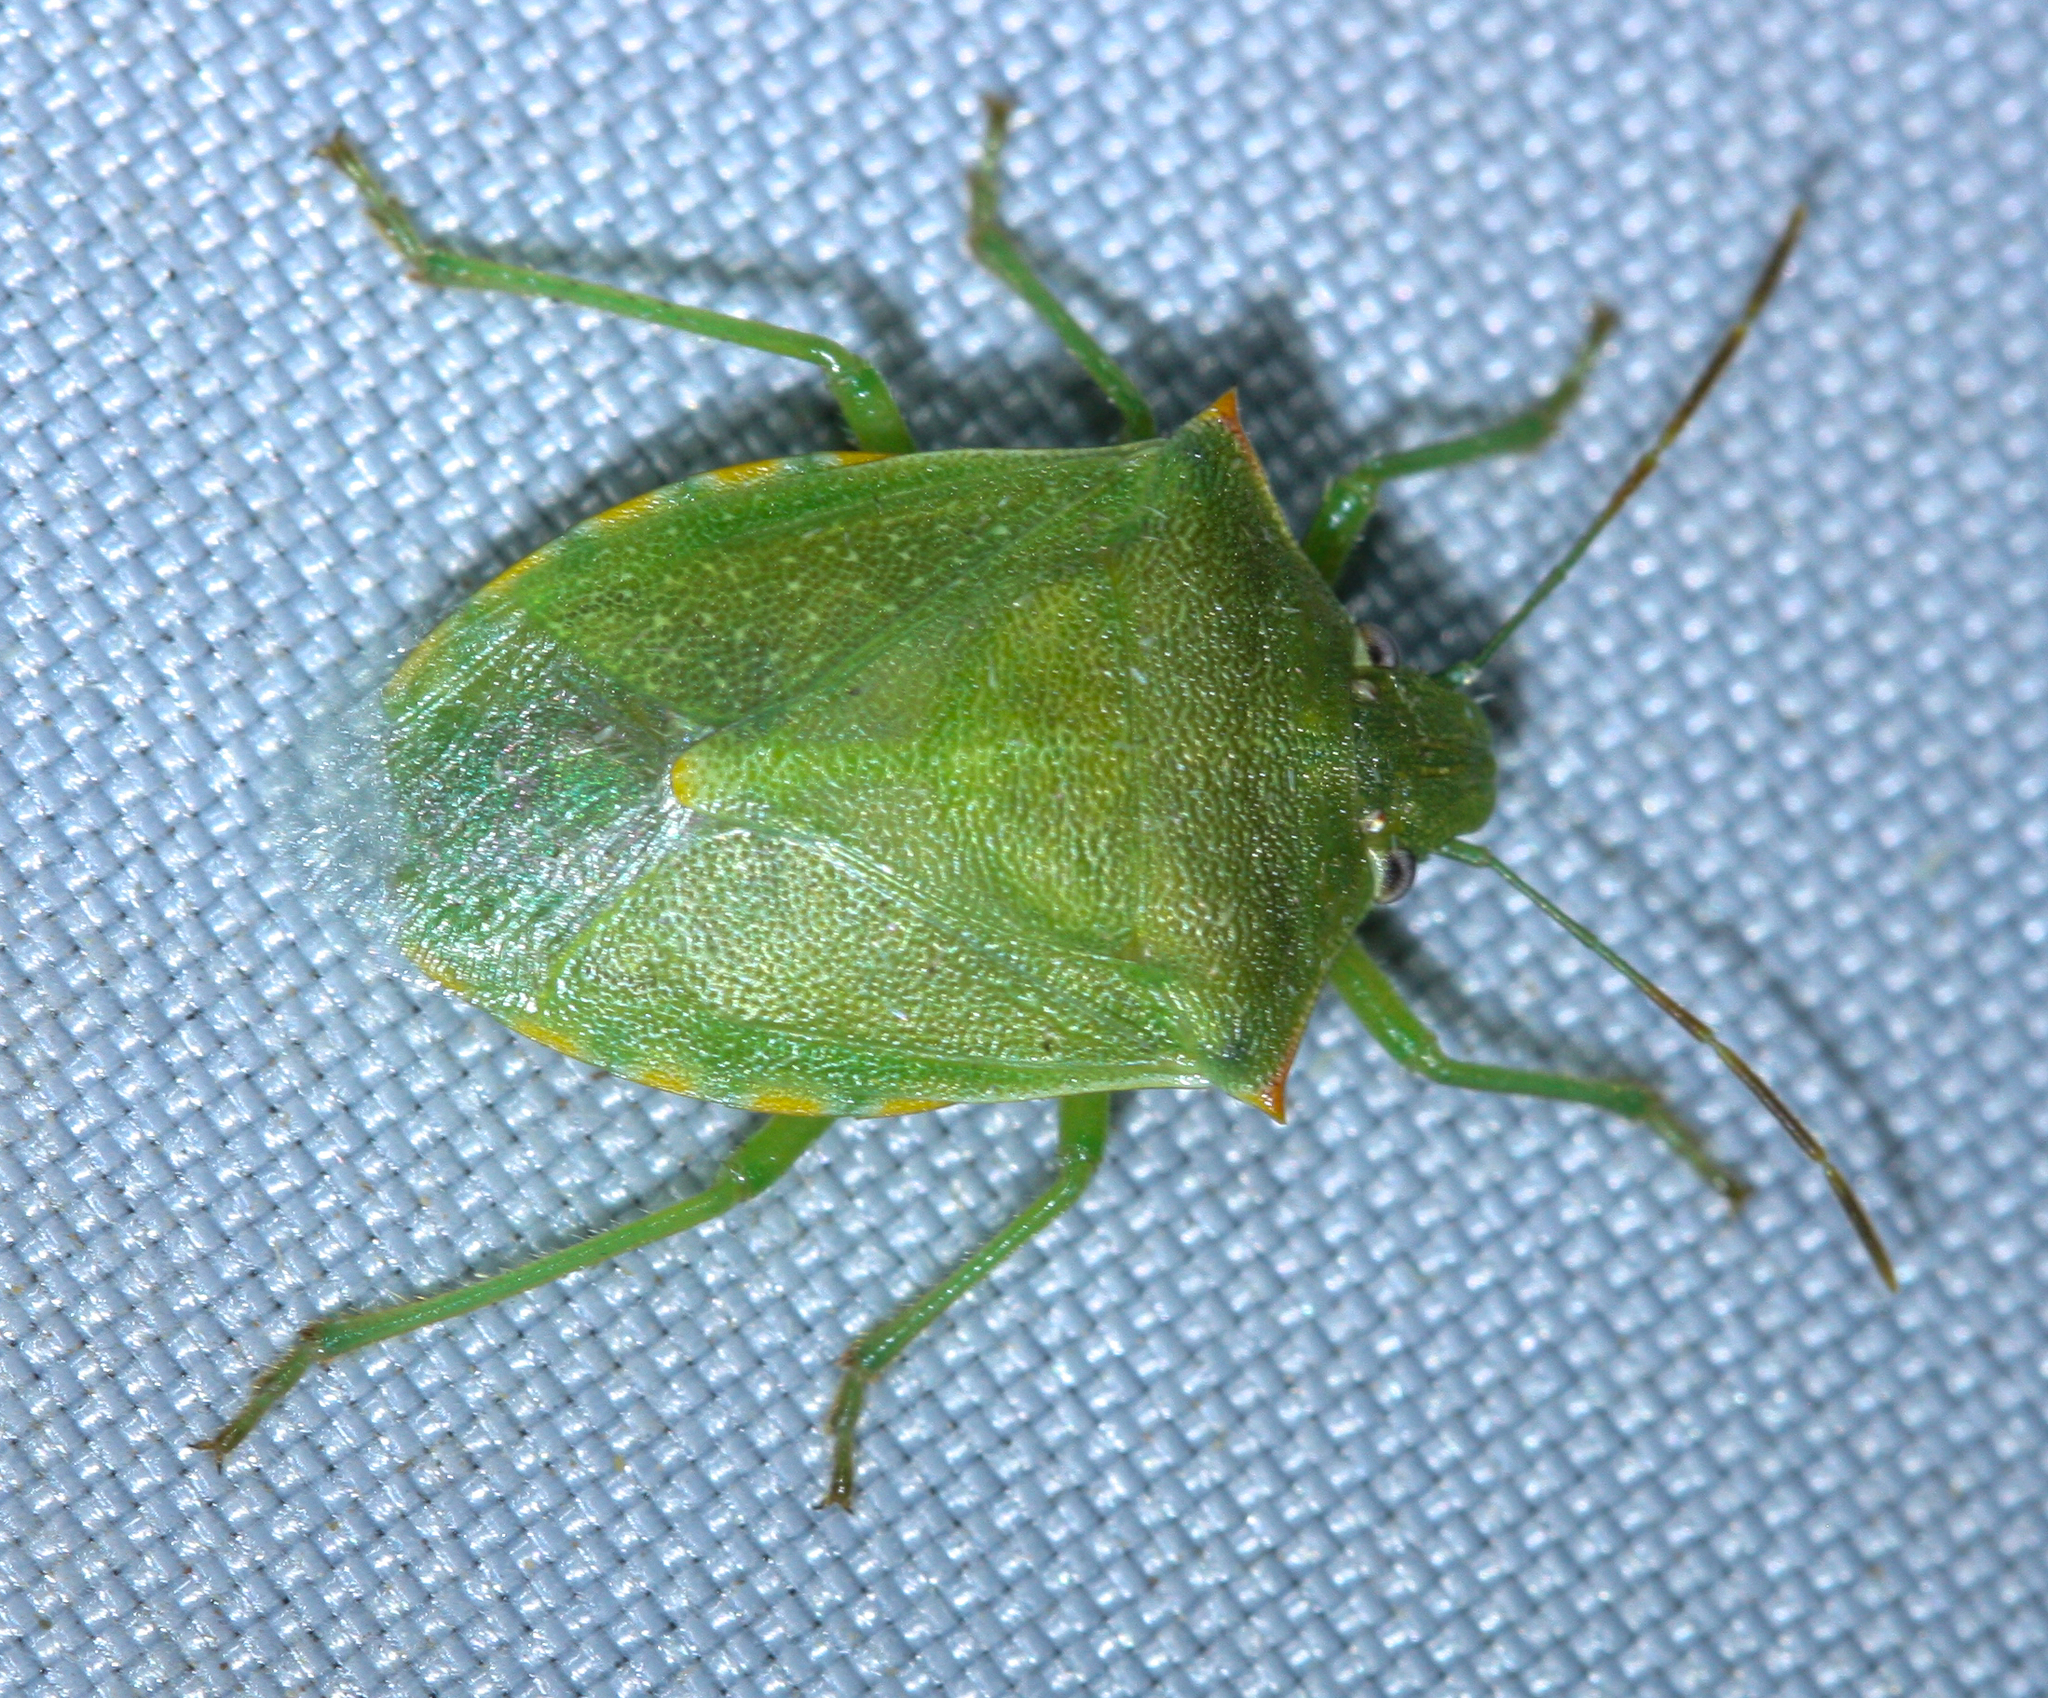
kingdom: Animalia
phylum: Arthropoda
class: Insecta
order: Hemiptera
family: Pentatomidae
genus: Thyanta
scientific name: Thyanta accerra
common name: Stink bug
